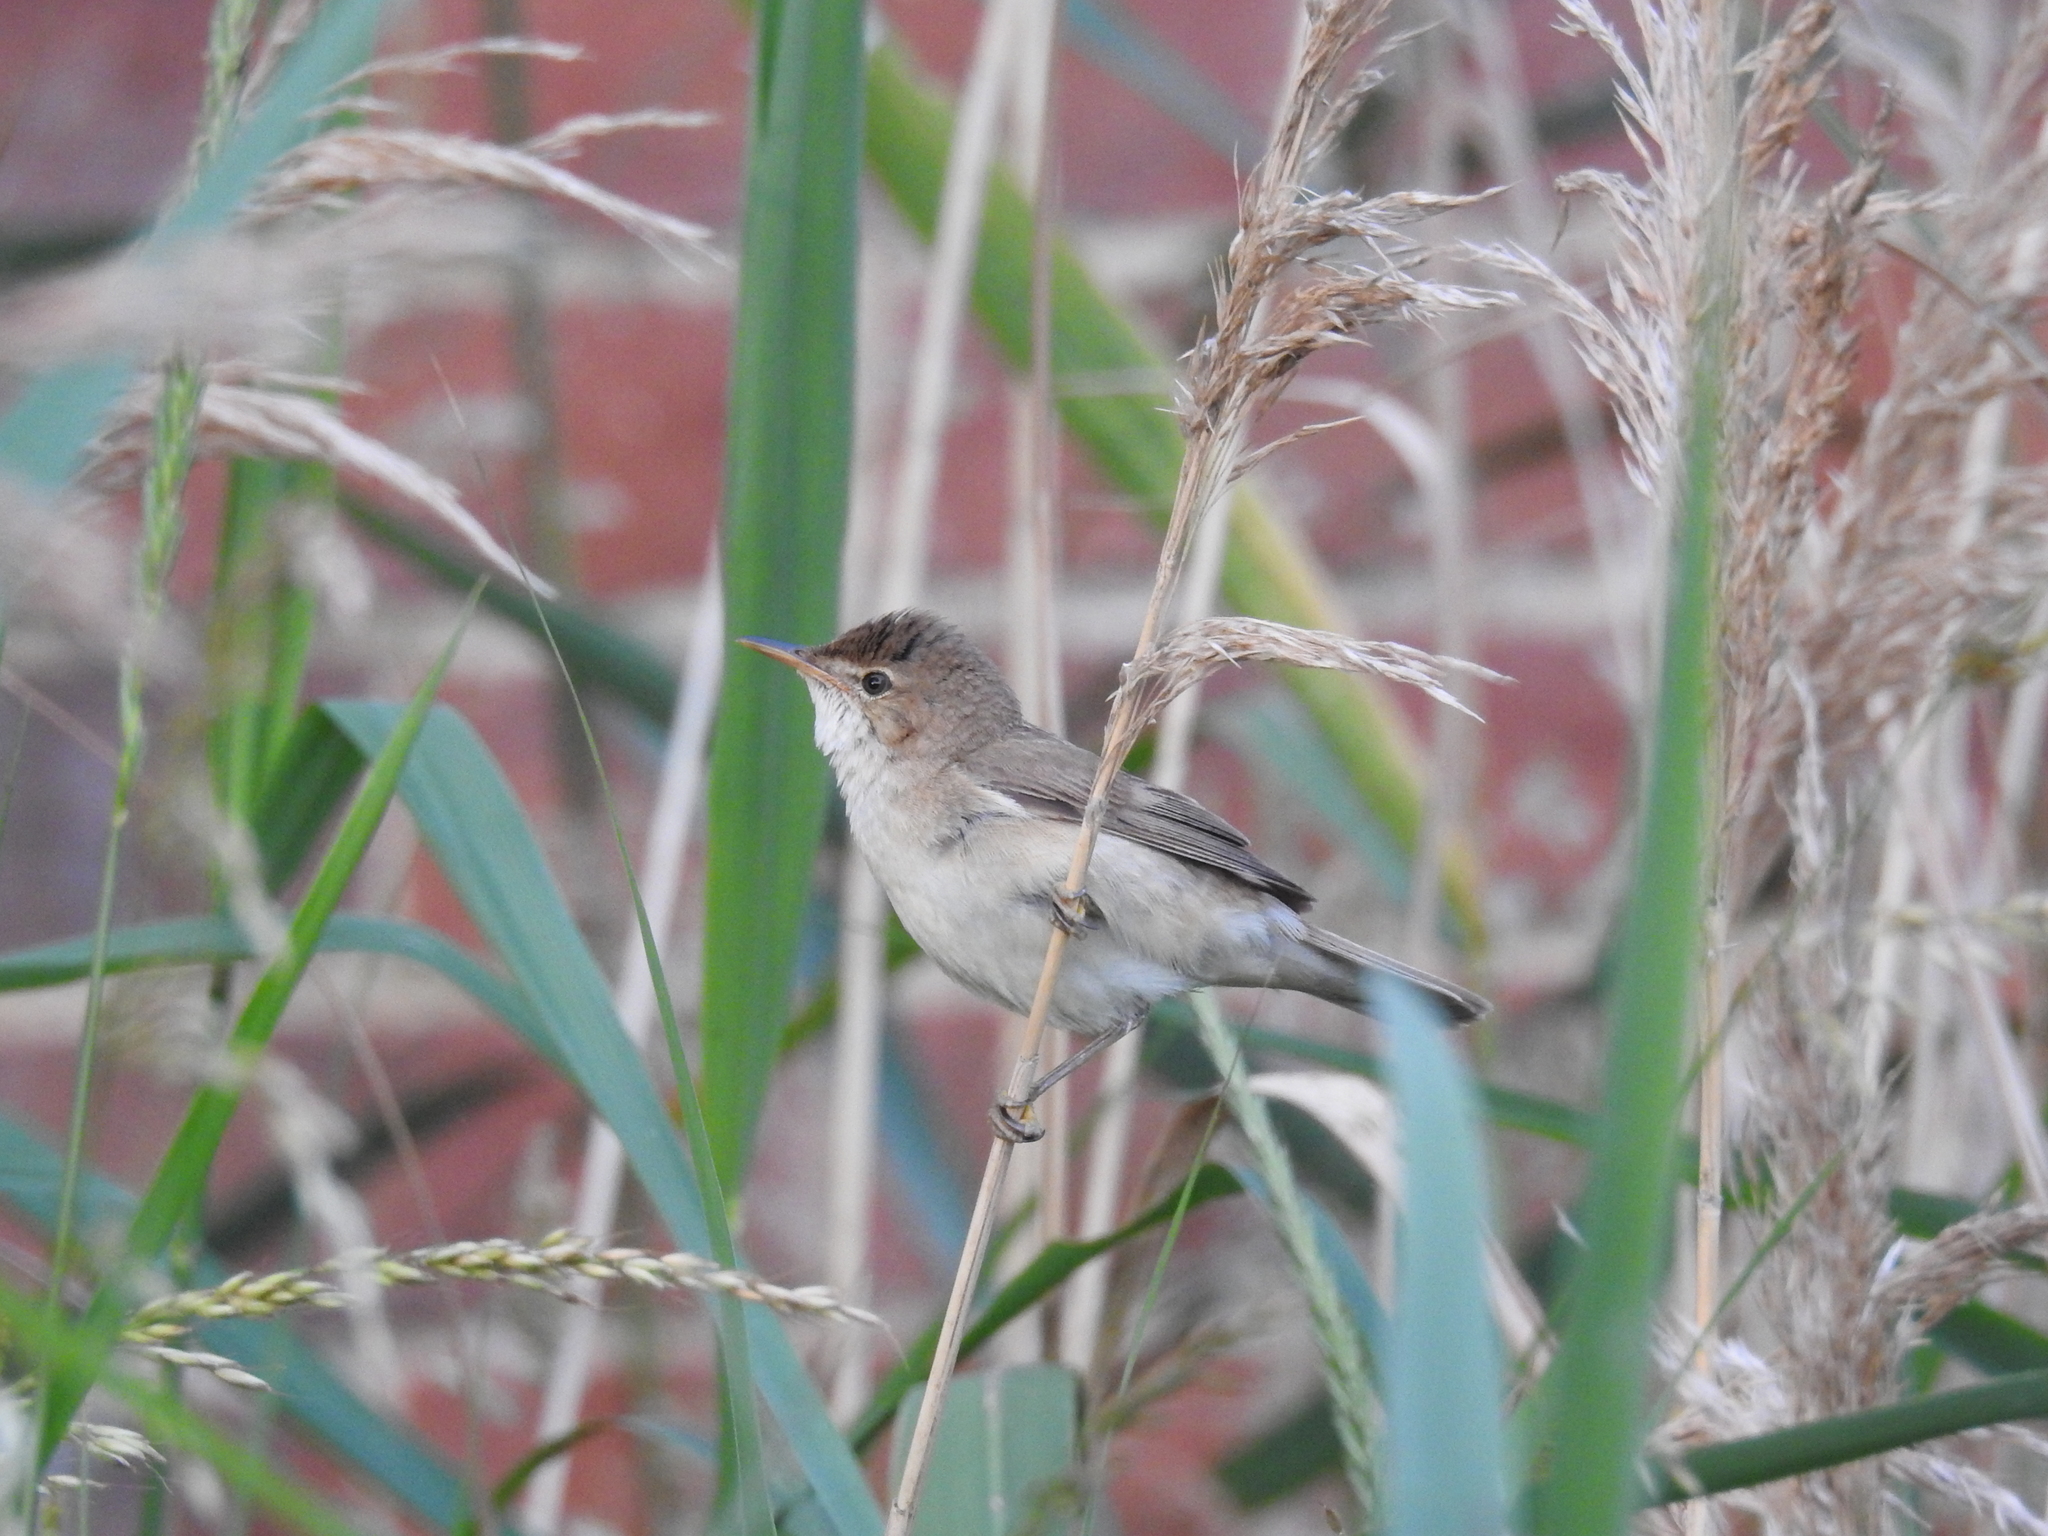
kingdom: Animalia
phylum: Chordata
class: Aves
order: Passeriformes
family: Acrocephalidae
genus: Acrocephalus
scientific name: Acrocephalus scirpaceus
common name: Eurasian reed warbler
